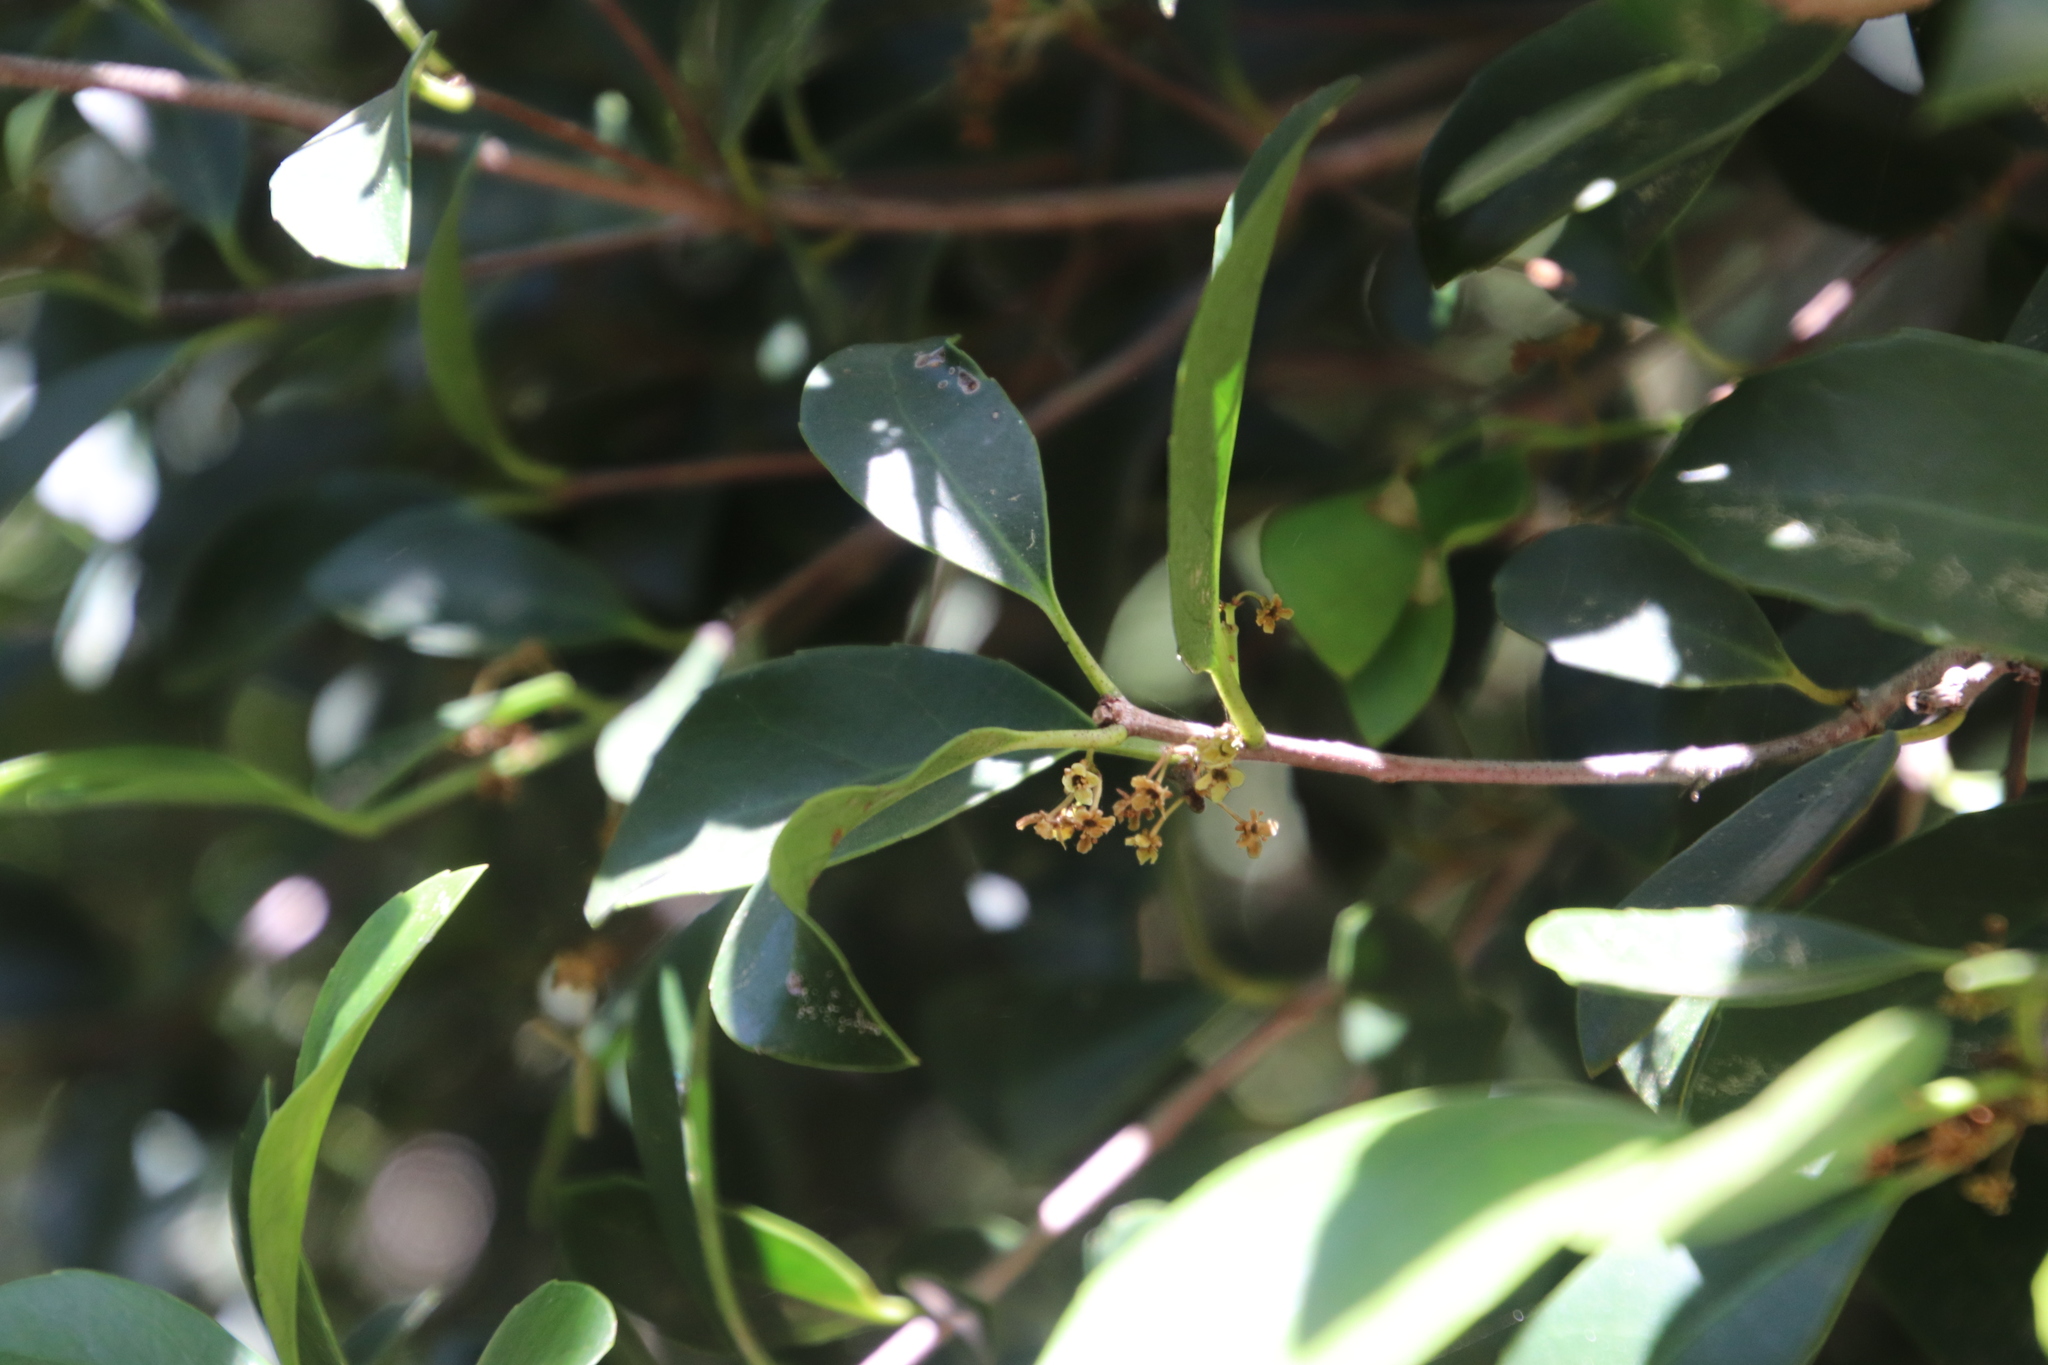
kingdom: Plantae
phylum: Tracheophyta
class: Magnoliopsida
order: Celastrales
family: Celastraceae
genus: Elaeodendron
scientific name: Elaeodendron croceum
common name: Saffron
